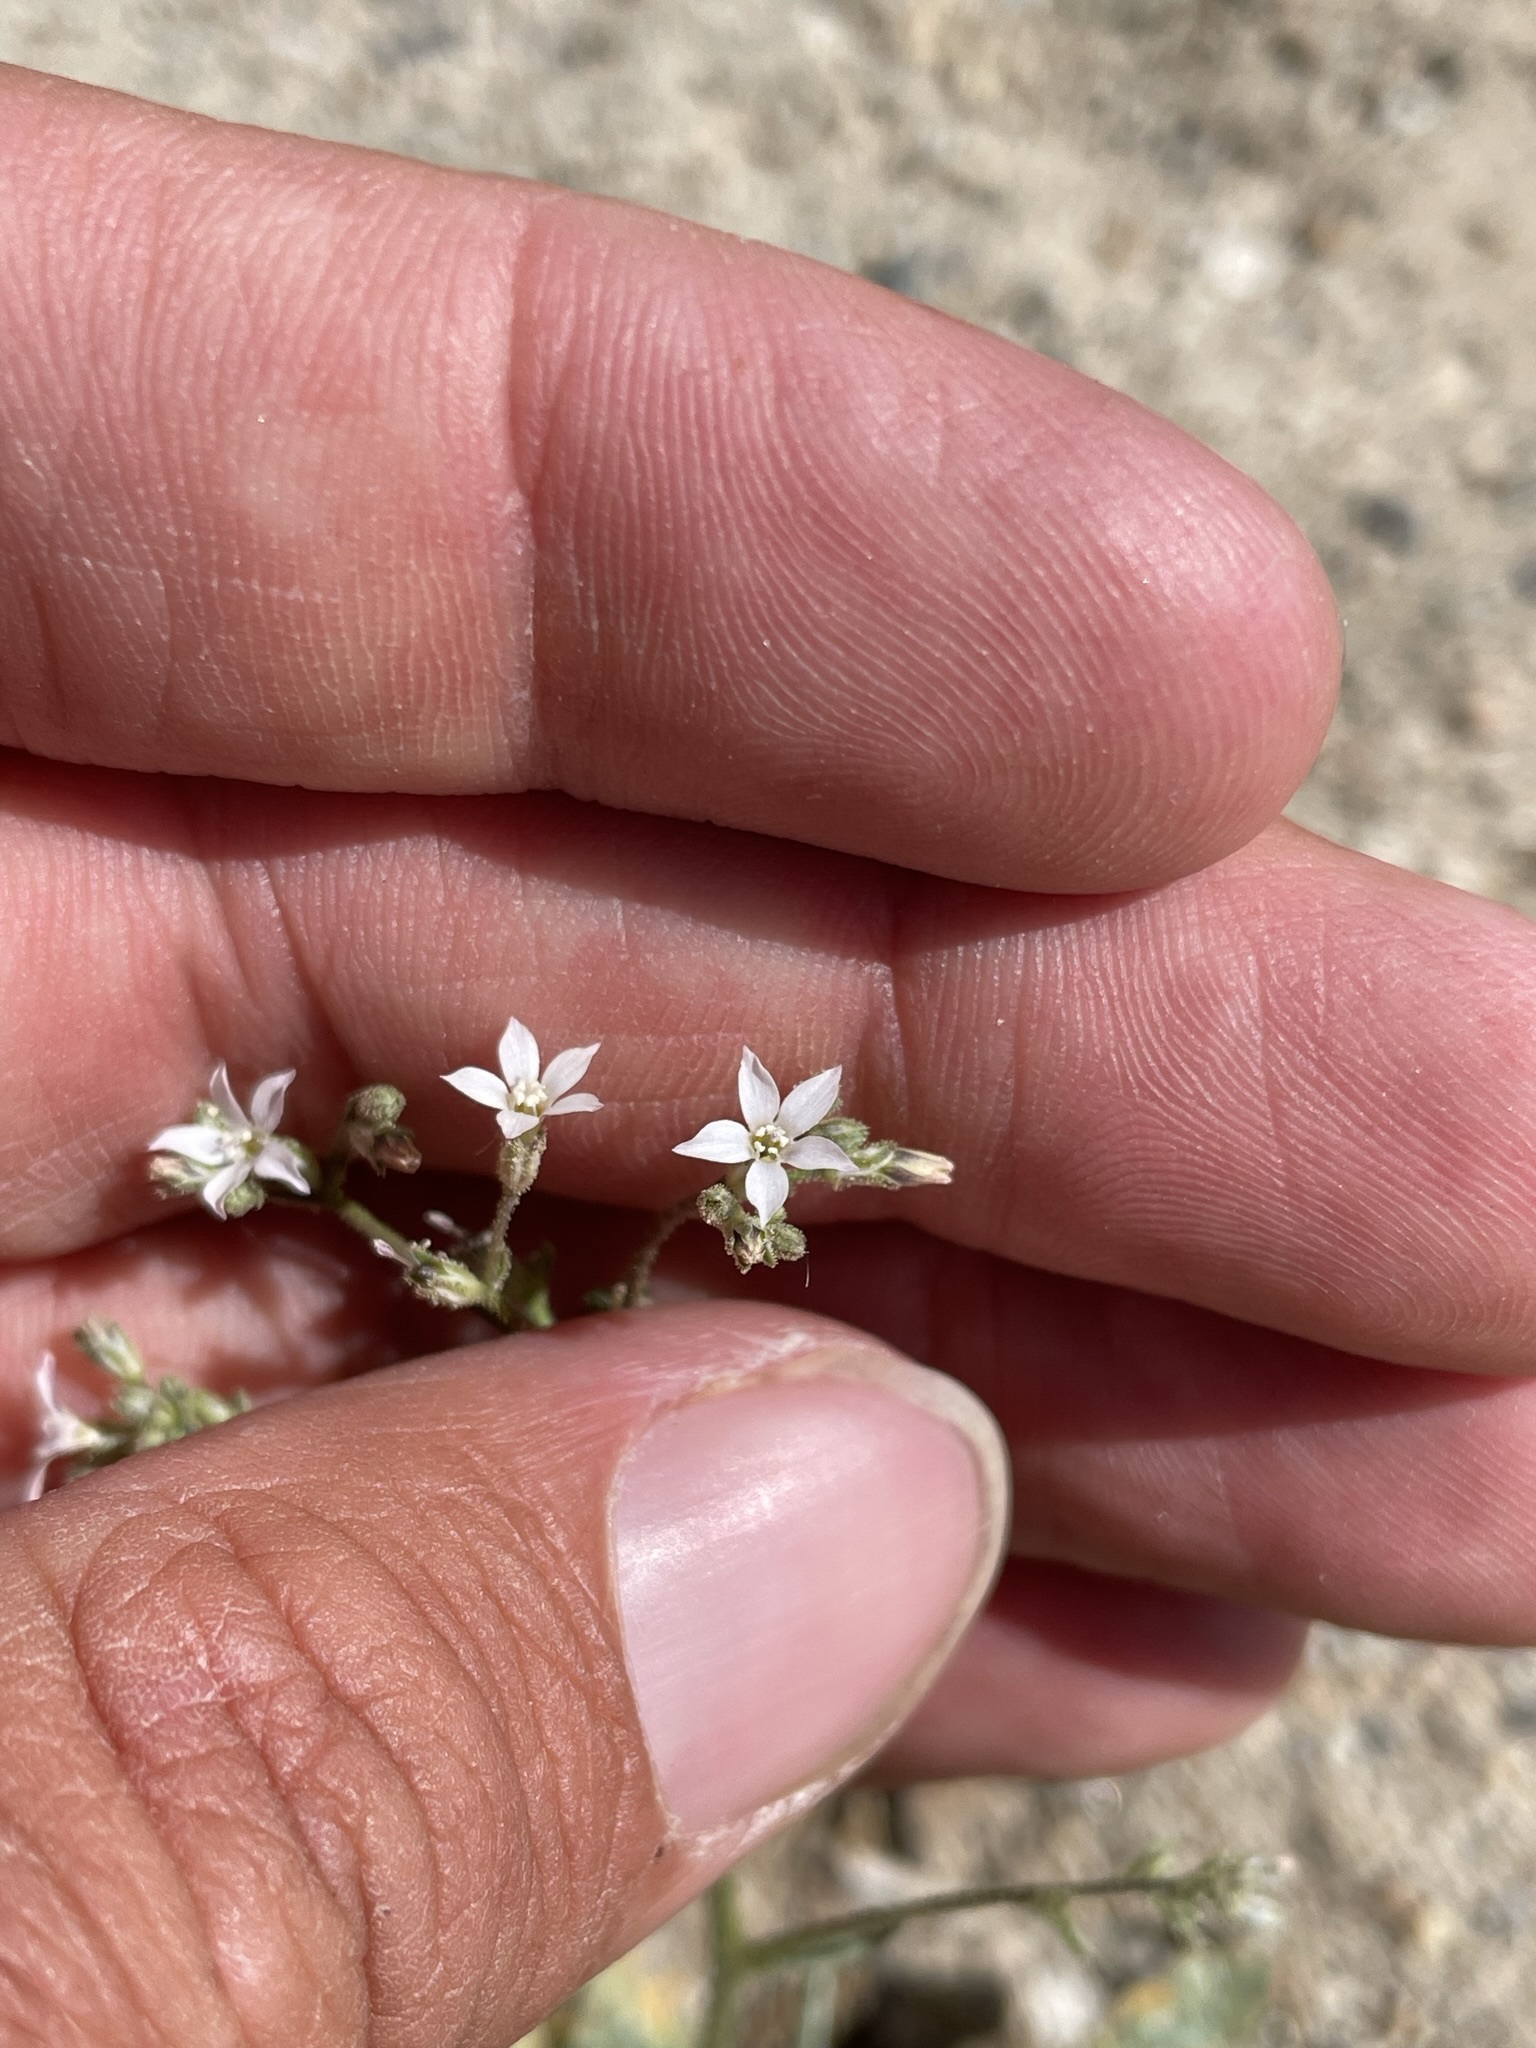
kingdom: Plantae
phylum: Tracheophyta
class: Magnoliopsida
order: Ericales
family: Polemoniaceae
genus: Aliciella
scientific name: Aliciella lottiae
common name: Lott's gilia
